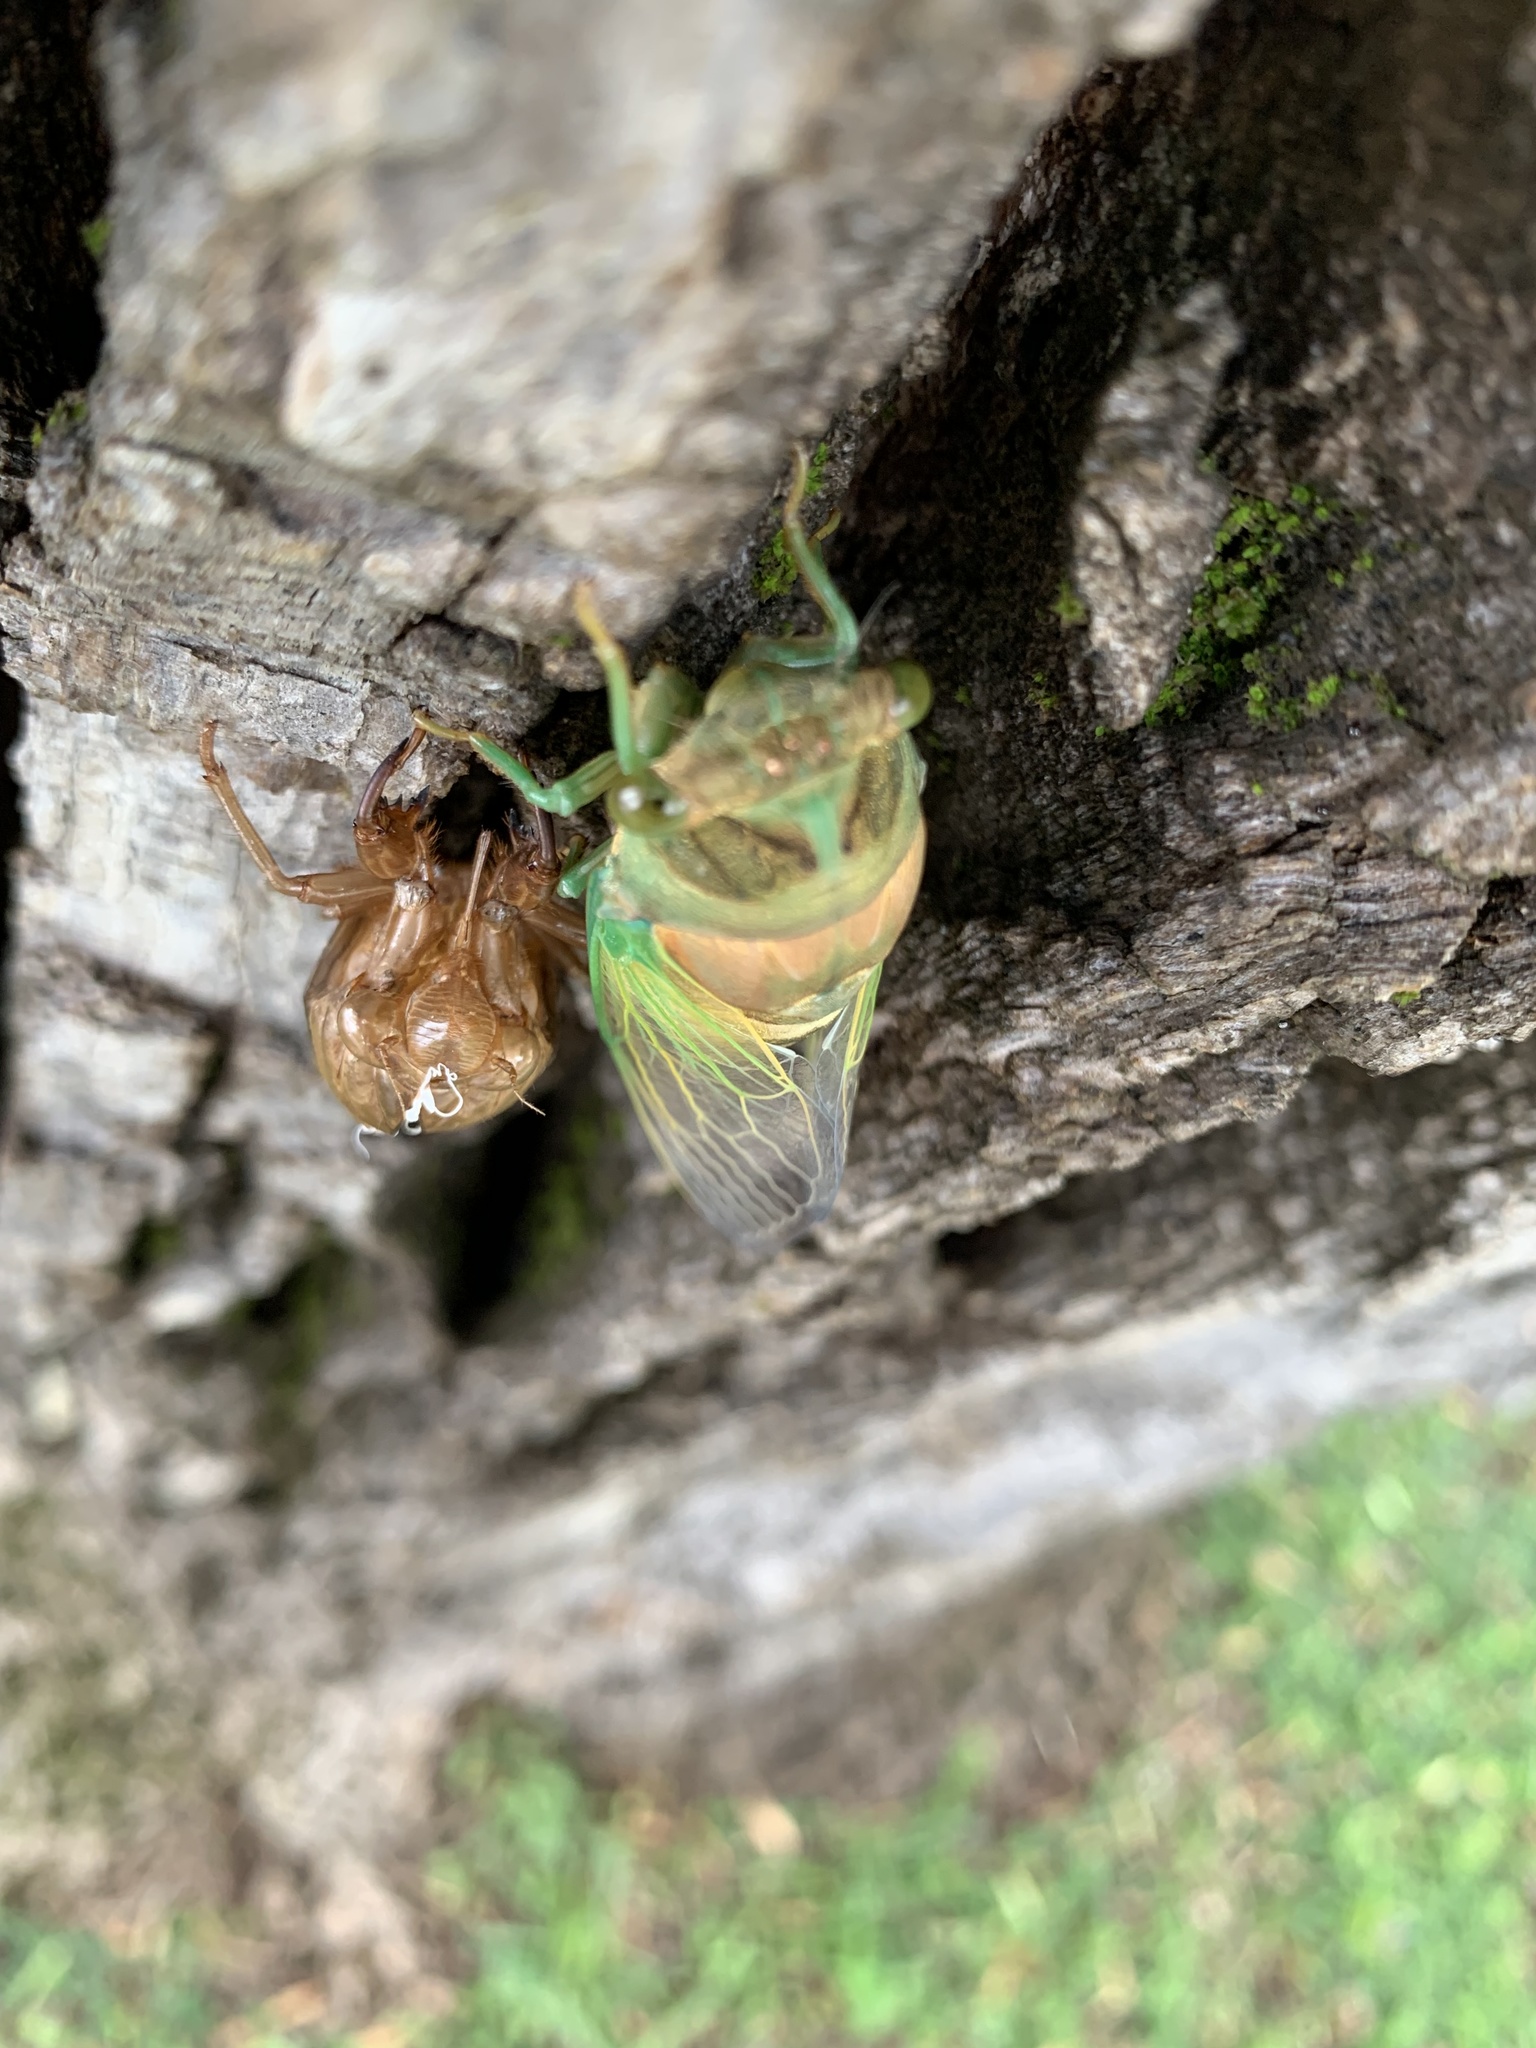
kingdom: Animalia
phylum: Arthropoda
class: Insecta
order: Hemiptera
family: Cicadidae
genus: Neotibicen
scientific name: Neotibicen tibicen
